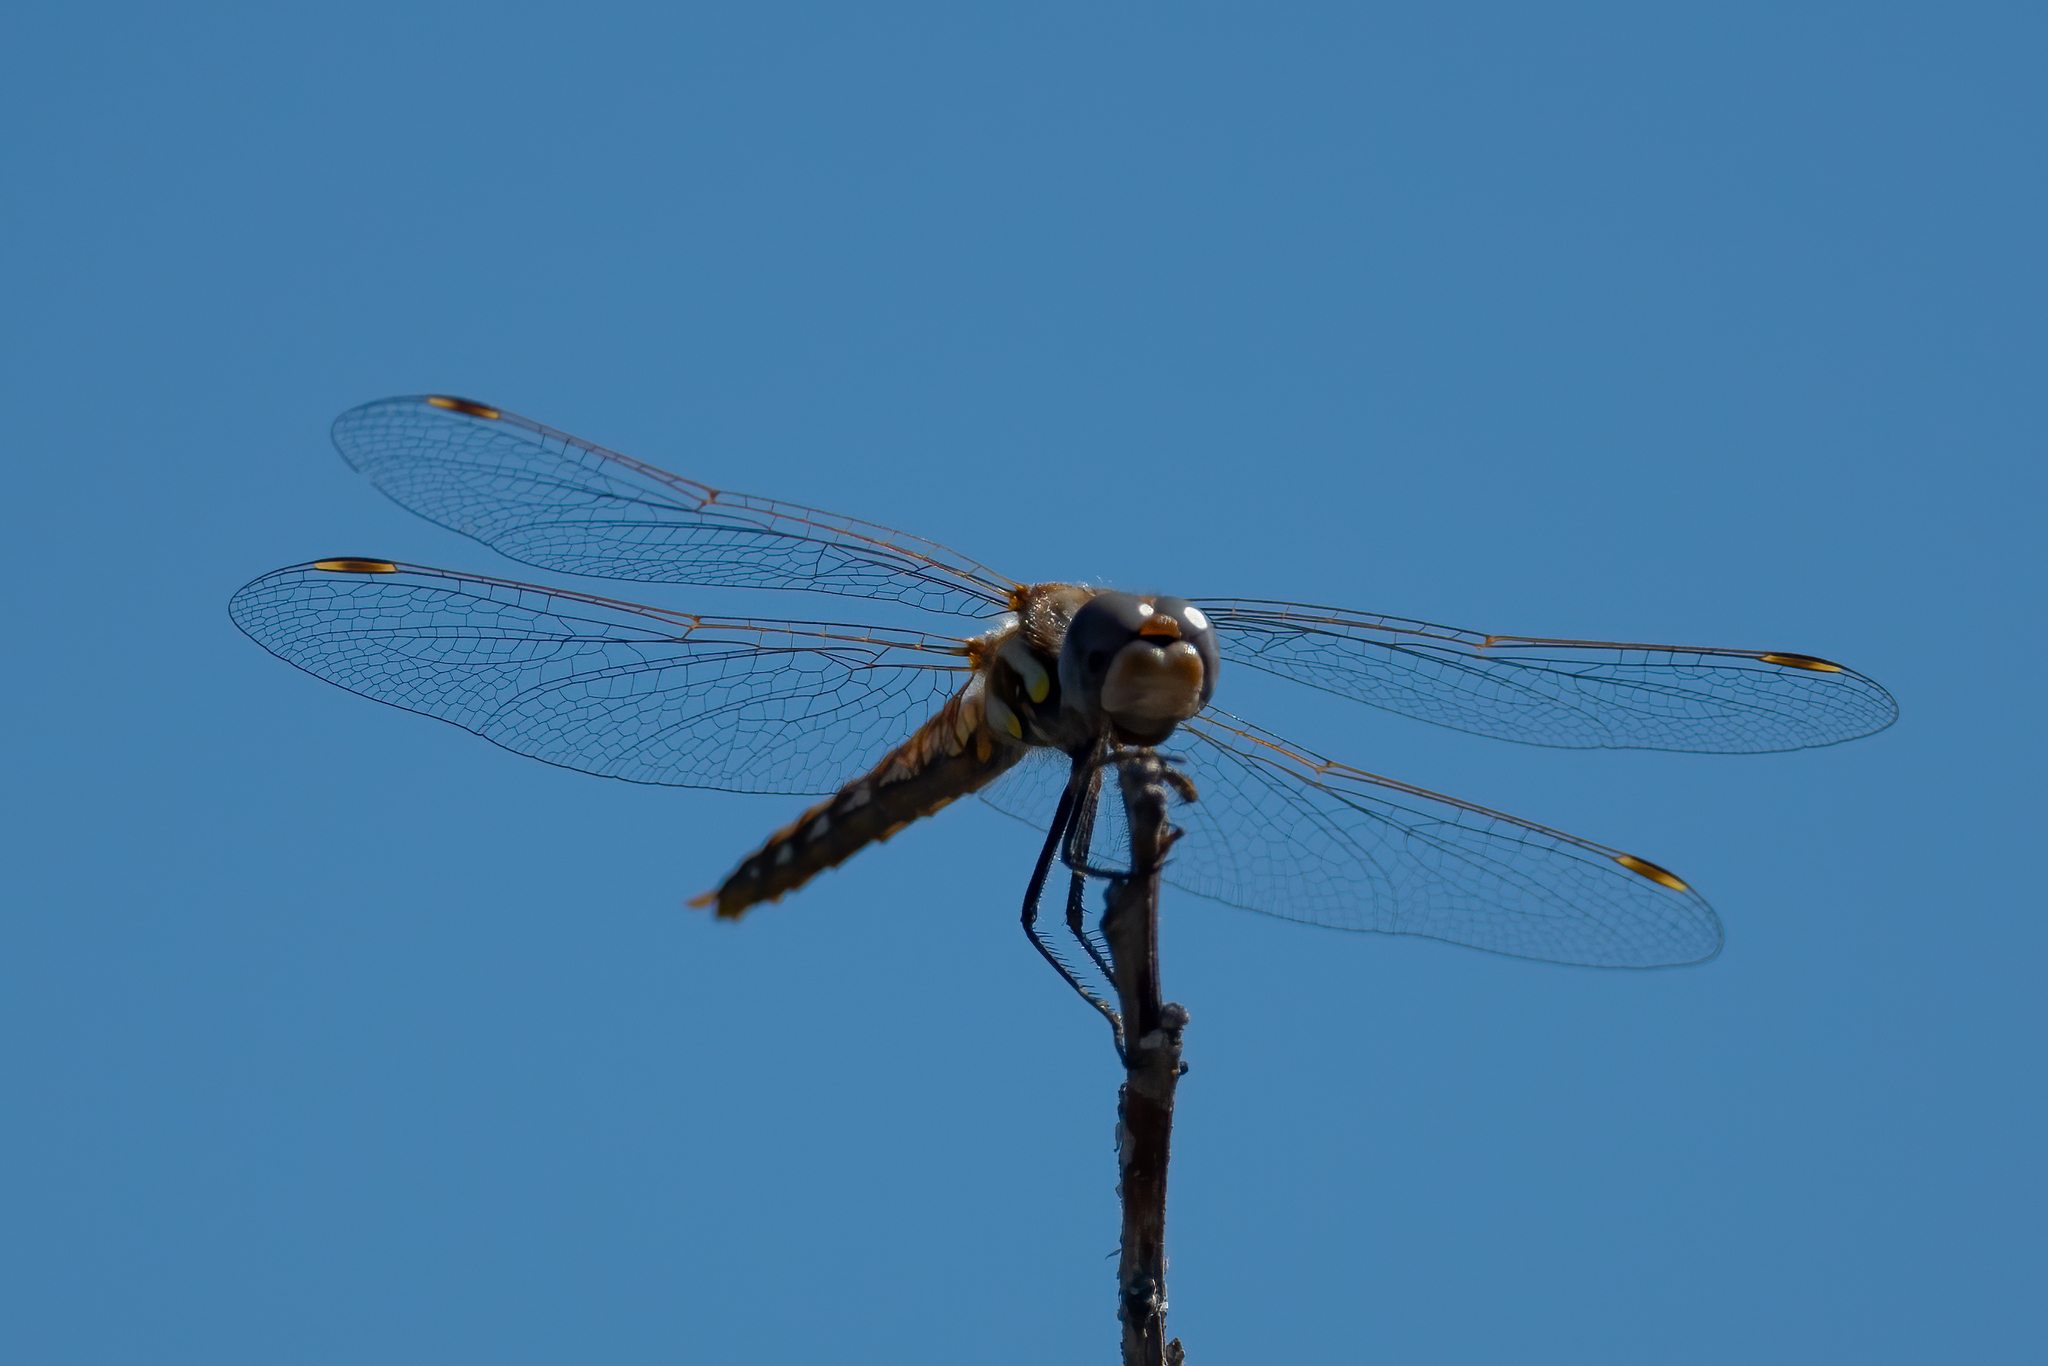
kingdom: Animalia
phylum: Arthropoda
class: Insecta
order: Odonata
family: Libellulidae
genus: Sympetrum
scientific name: Sympetrum corruptum
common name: Variegated meadowhawk
